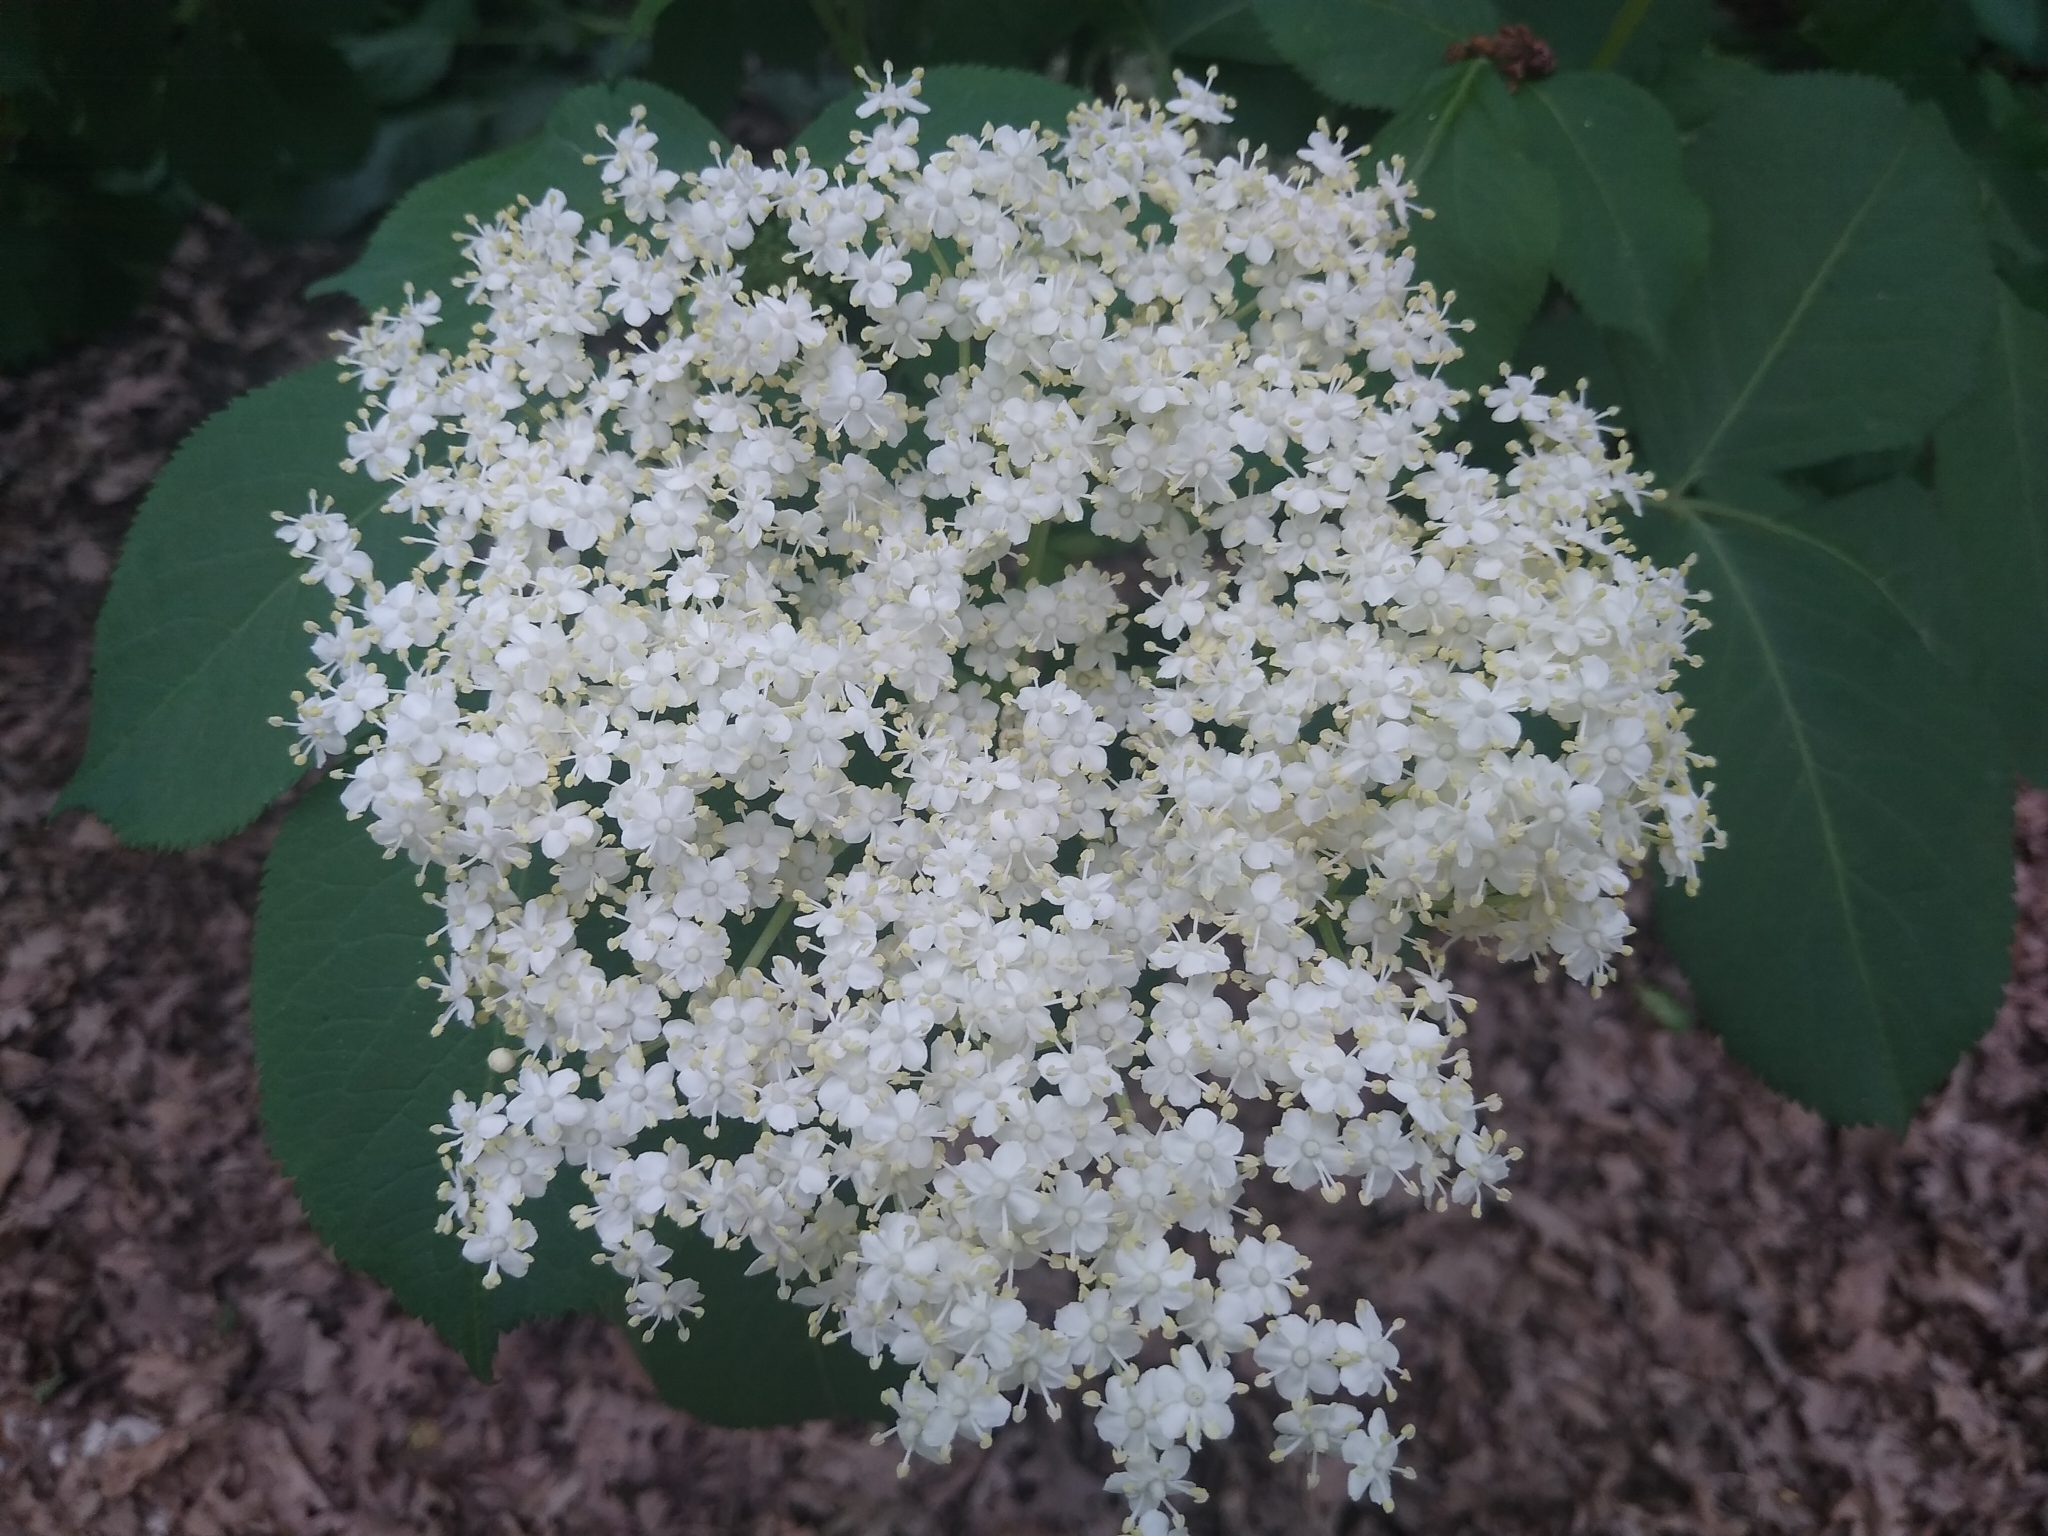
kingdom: Plantae
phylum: Tracheophyta
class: Magnoliopsida
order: Dipsacales
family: Viburnaceae
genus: Sambucus
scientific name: Sambucus nigra
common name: Elder
